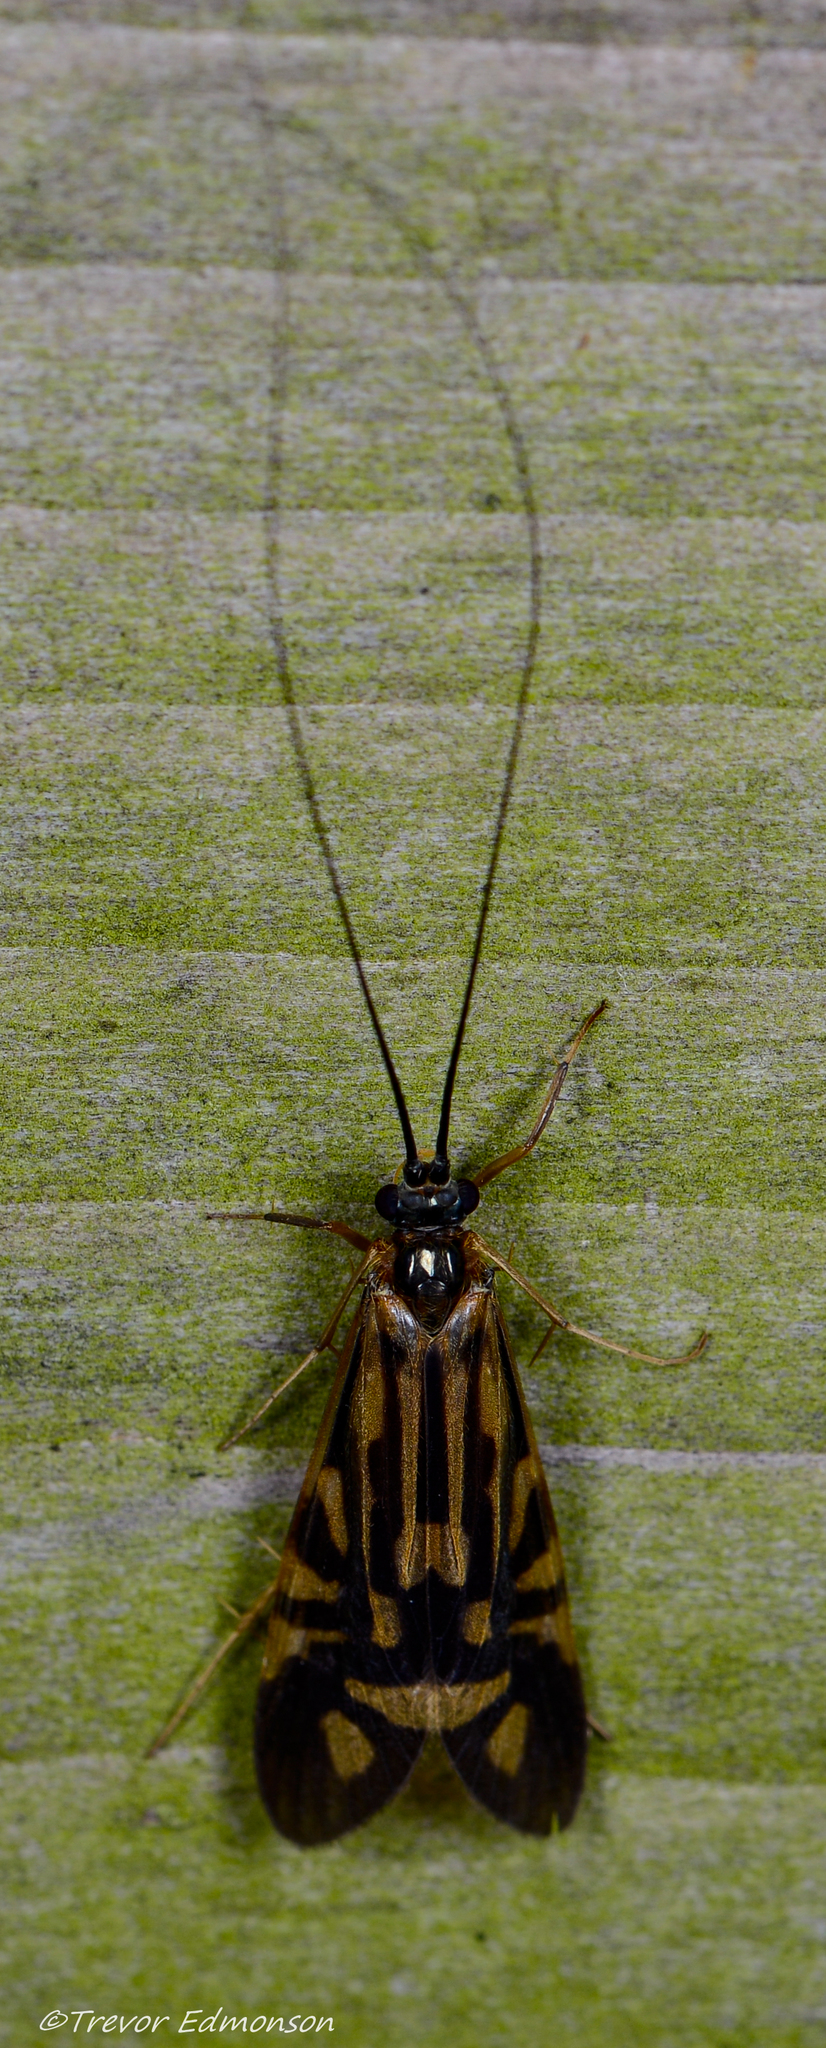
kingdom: Animalia
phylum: Arthropoda
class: Insecta
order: Trichoptera
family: Hydropsychidae
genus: Macrostemum
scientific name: Macrostemum zebratum
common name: Zebra caddisfly
